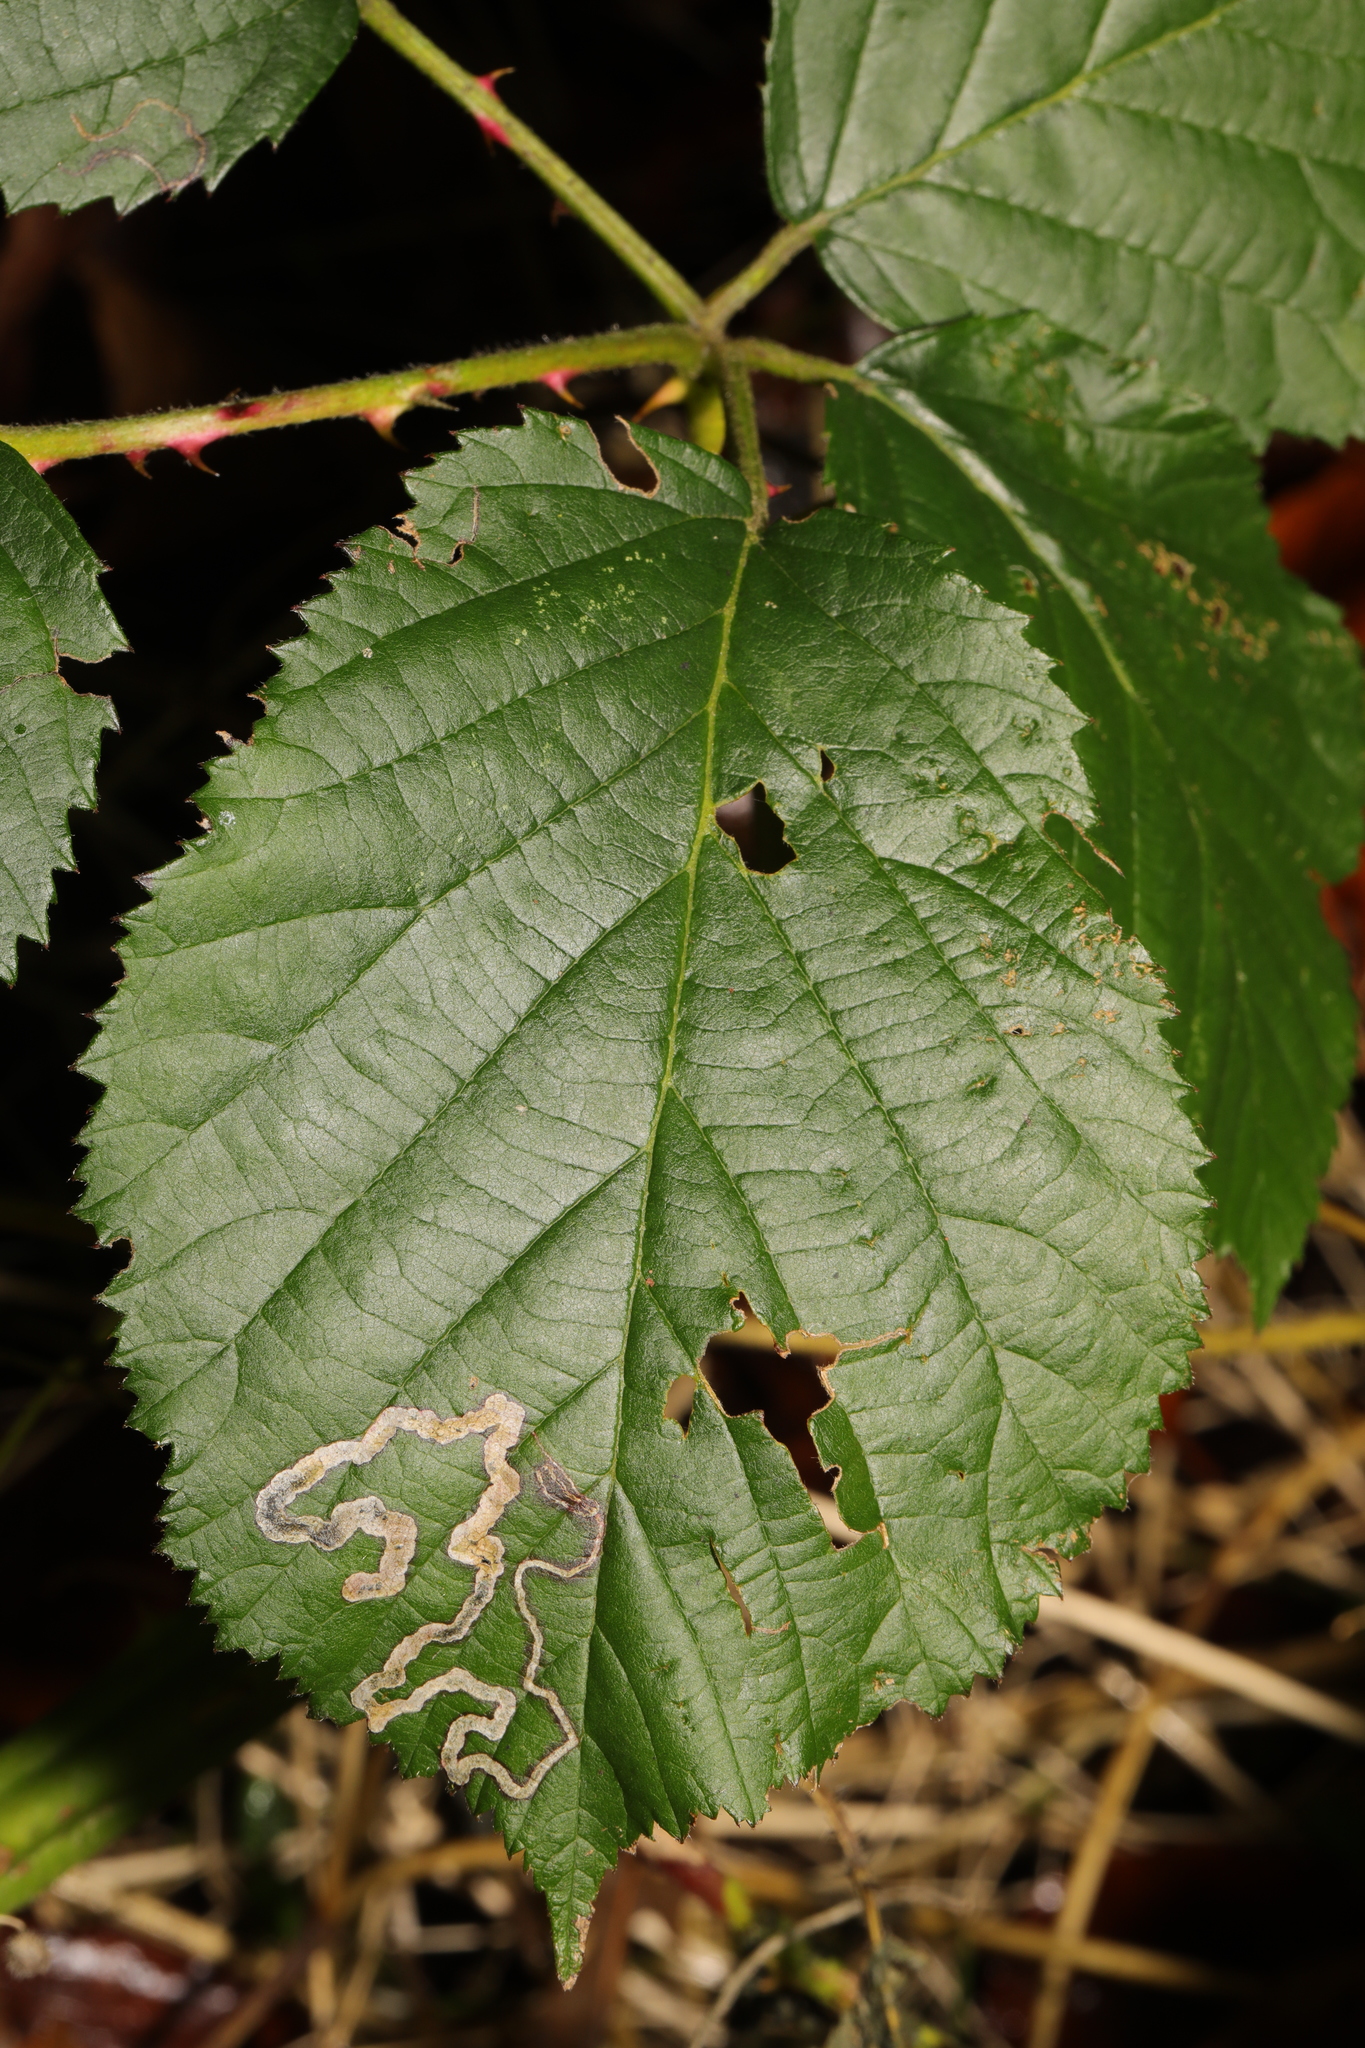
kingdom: Animalia
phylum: Arthropoda
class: Insecta
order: Lepidoptera
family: Nepticulidae
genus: Stigmella
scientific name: Stigmella aurella
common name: Golden pigmy
